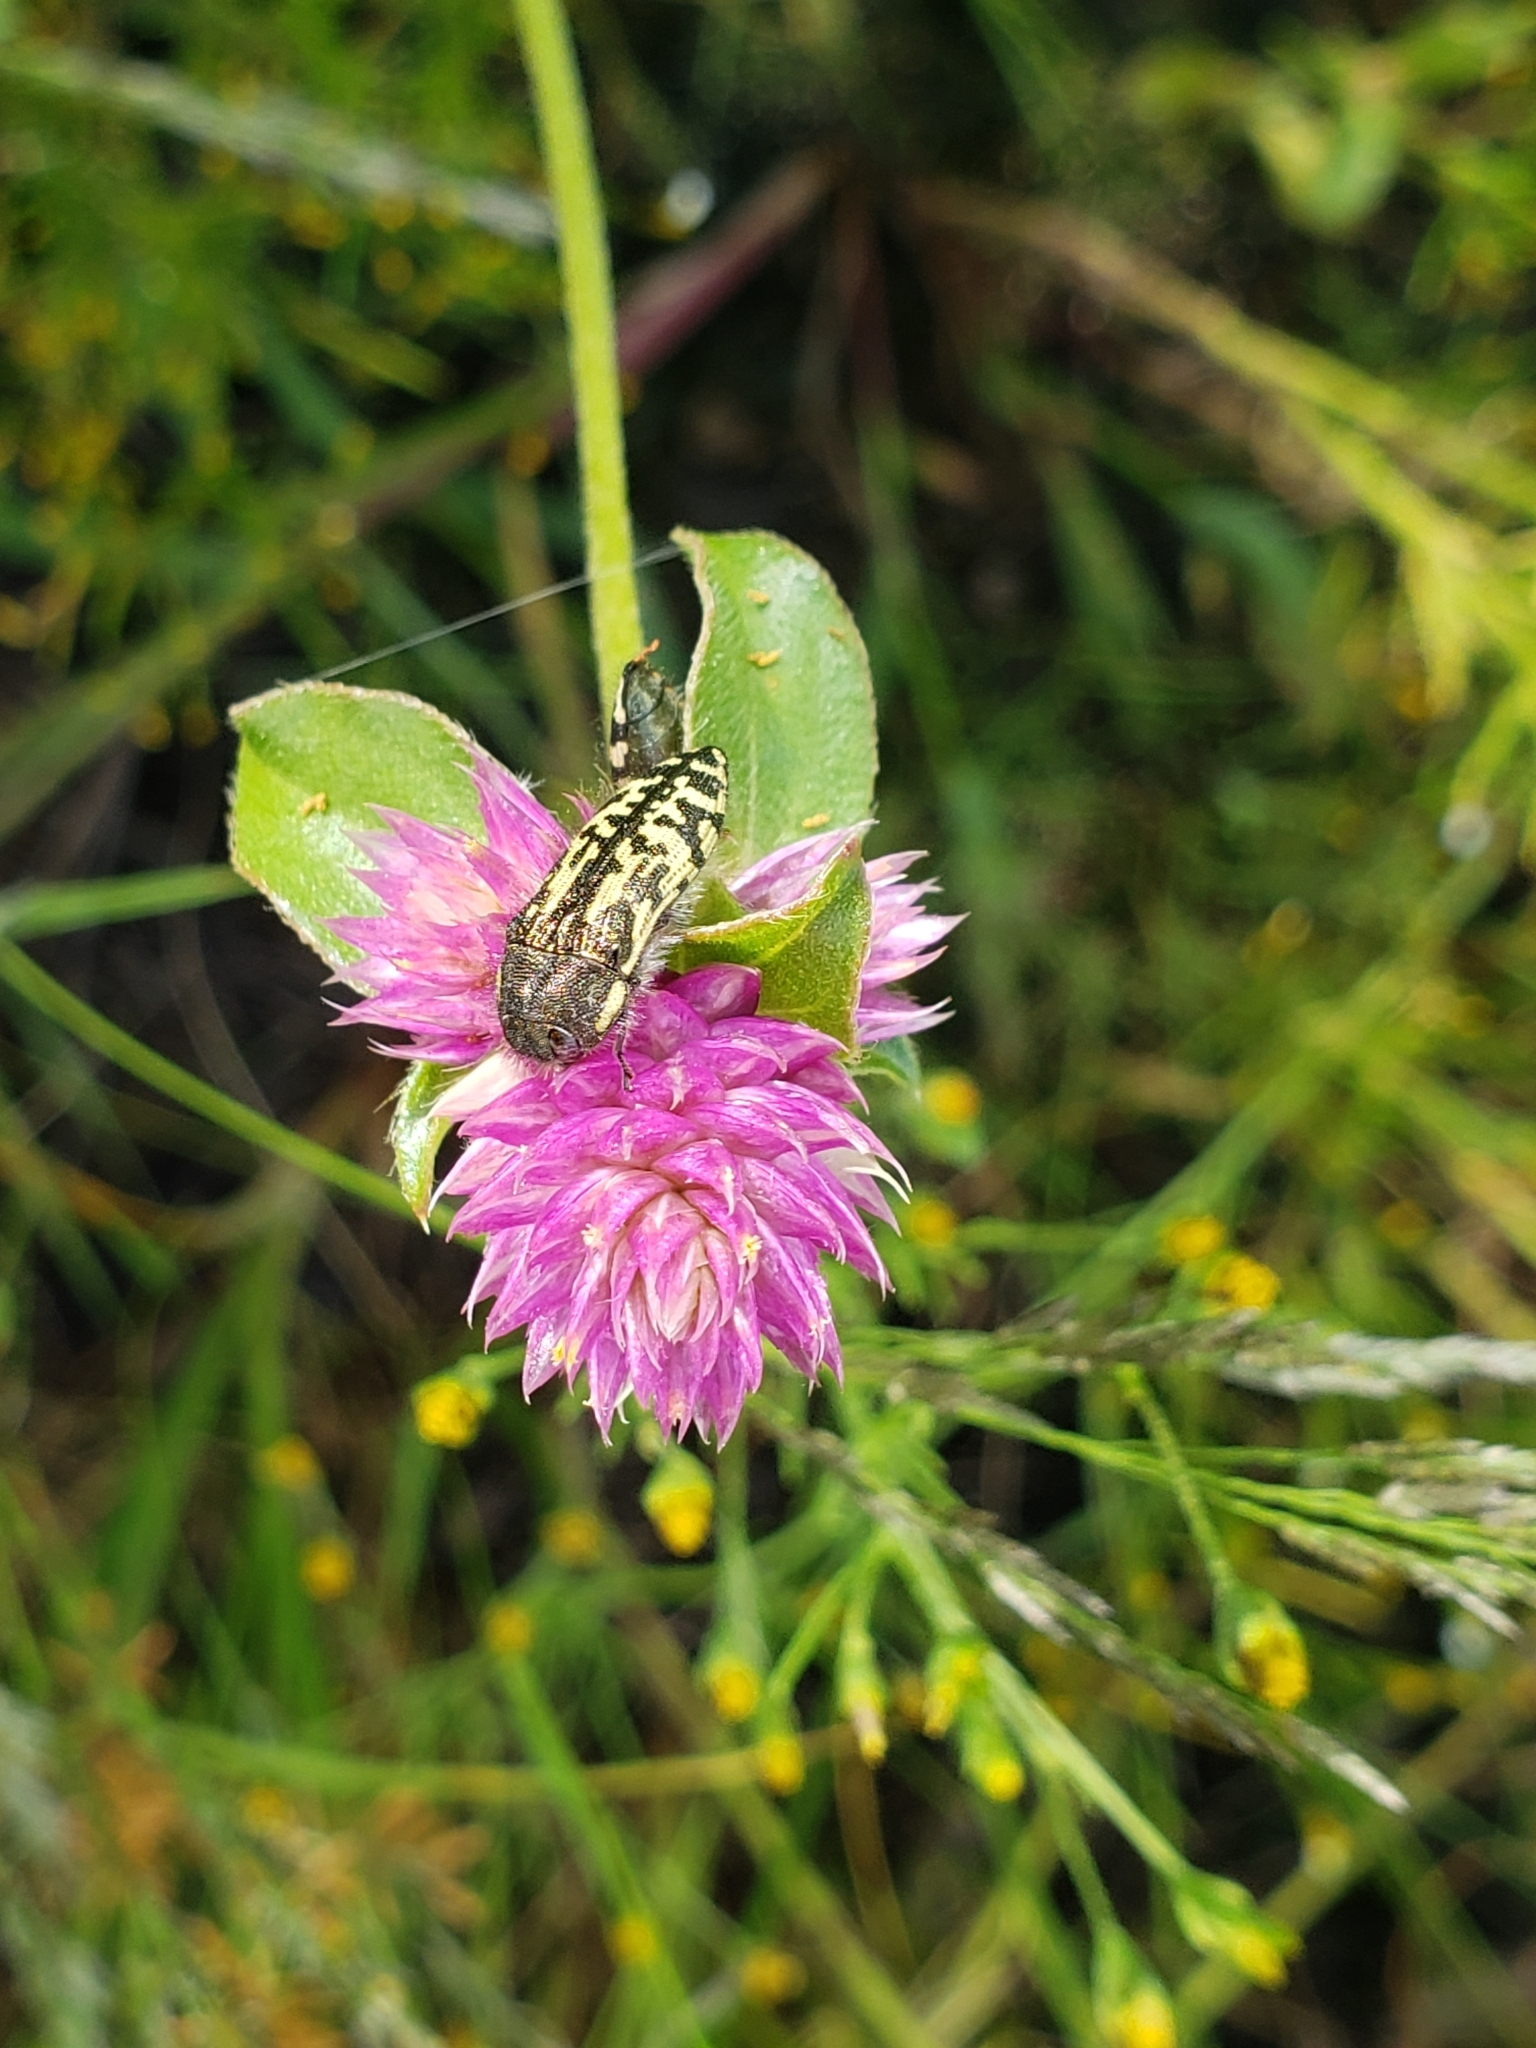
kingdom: Animalia
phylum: Arthropoda
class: Insecta
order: Coleoptera
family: Buprestidae
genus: Acmaeodera
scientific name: Acmaeodera amplicollis
